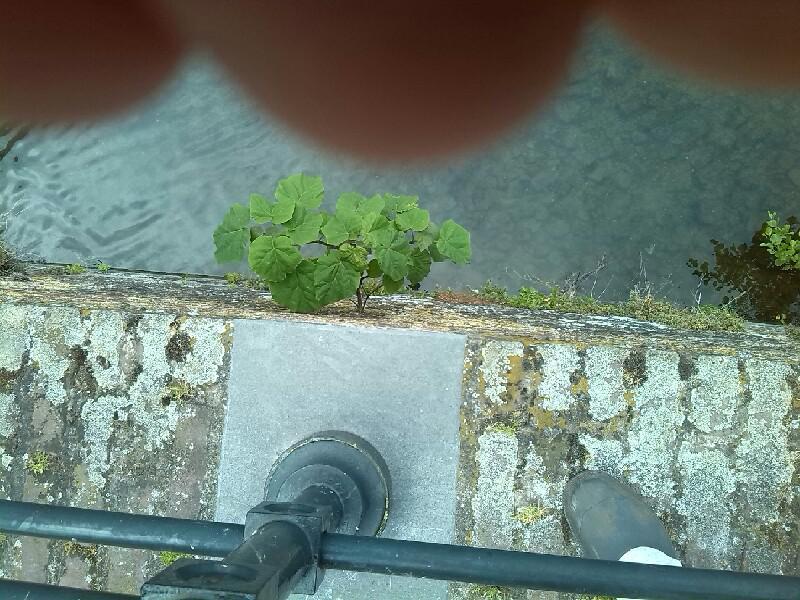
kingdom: Plantae
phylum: Tracheophyta
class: Magnoliopsida
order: Lamiales
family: Paulowniaceae
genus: Paulownia
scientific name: Paulownia tomentosa
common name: Foxglove-tree
